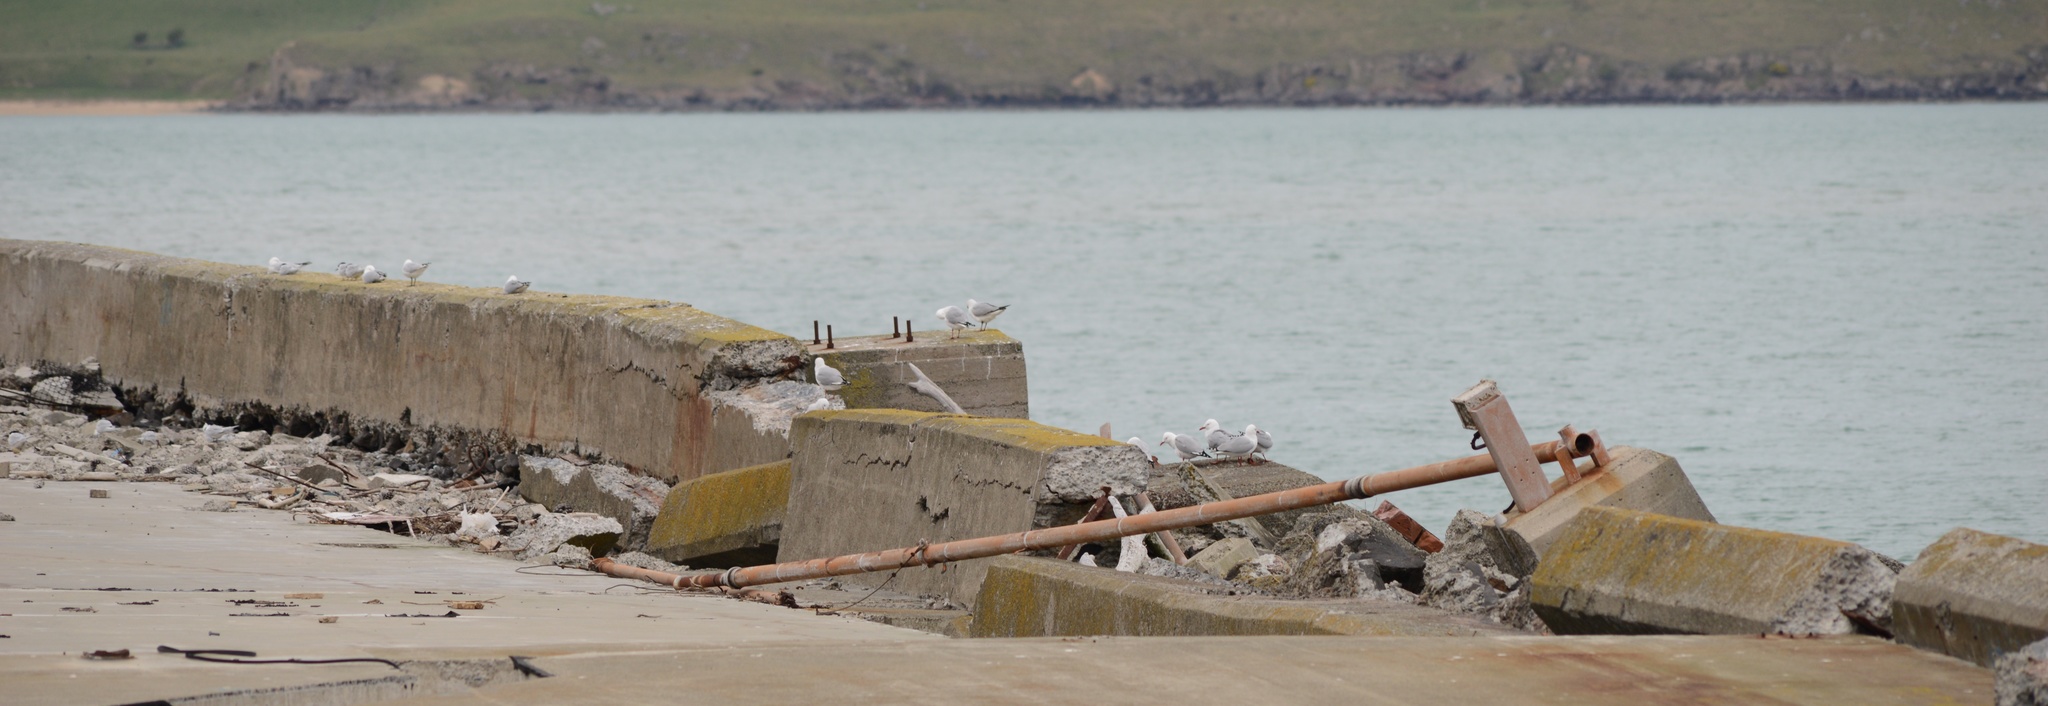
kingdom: Animalia
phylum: Chordata
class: Aves
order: Charadriiformes
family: Laridae
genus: Chroicocephalus
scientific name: Chroicocephalus novaehollandiae
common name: Silver gull
